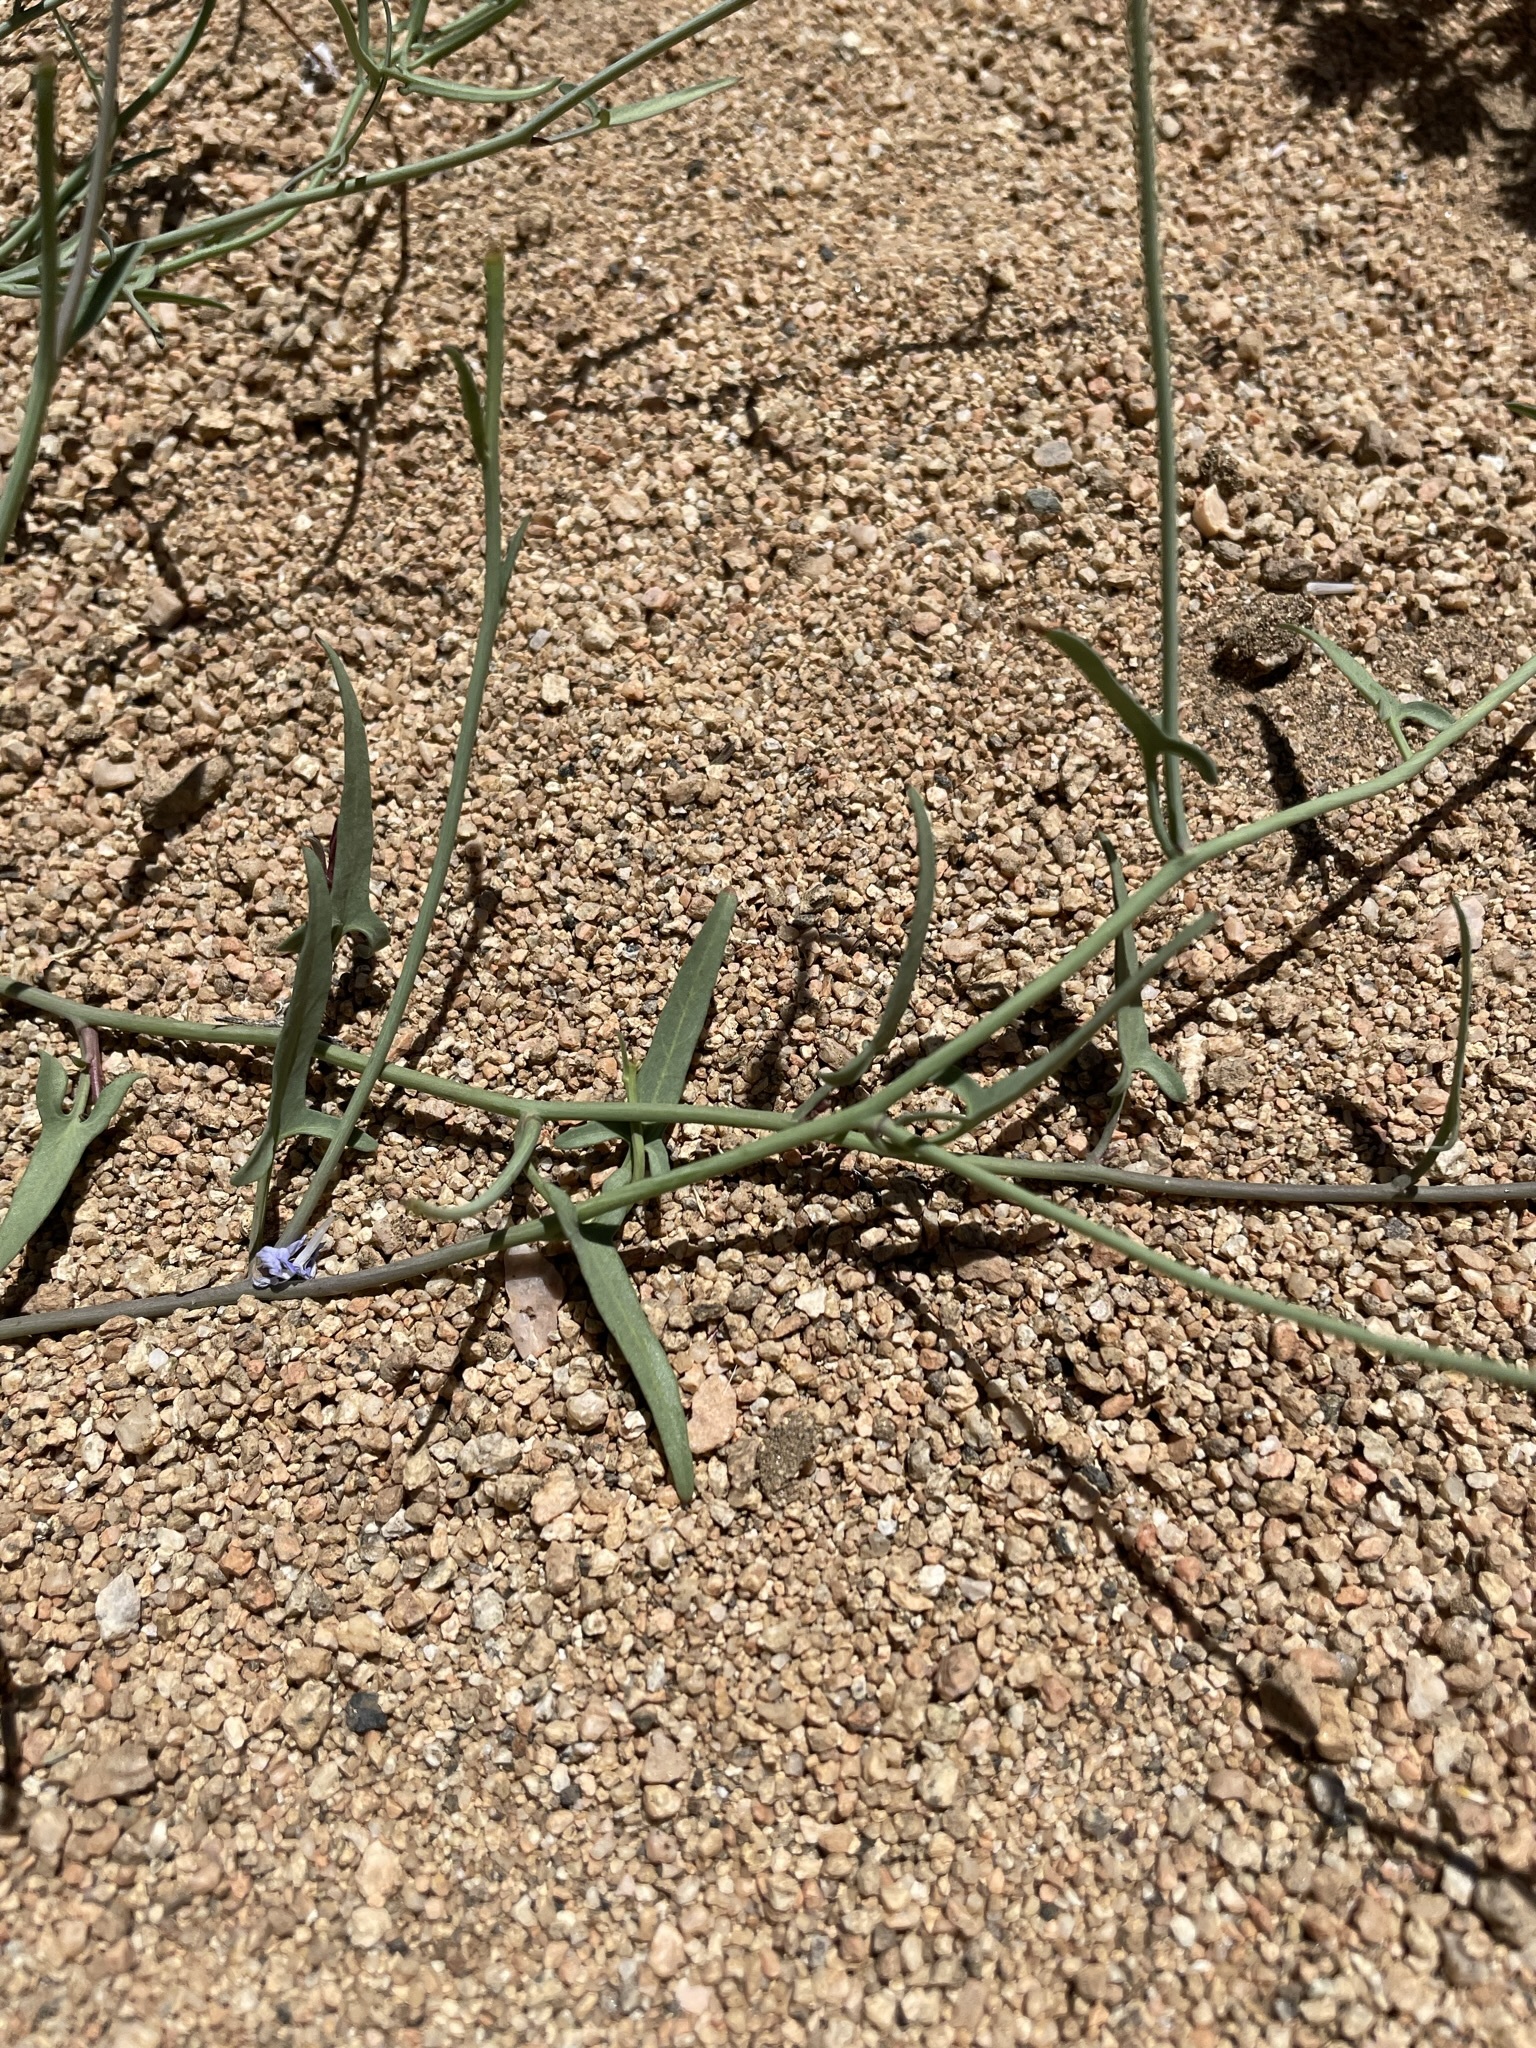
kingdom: Plantae
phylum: Tracheophyta
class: Magnoliopsida
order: Solanales
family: Convolvulaceae
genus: Calystegia
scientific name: Calystegia longipes
